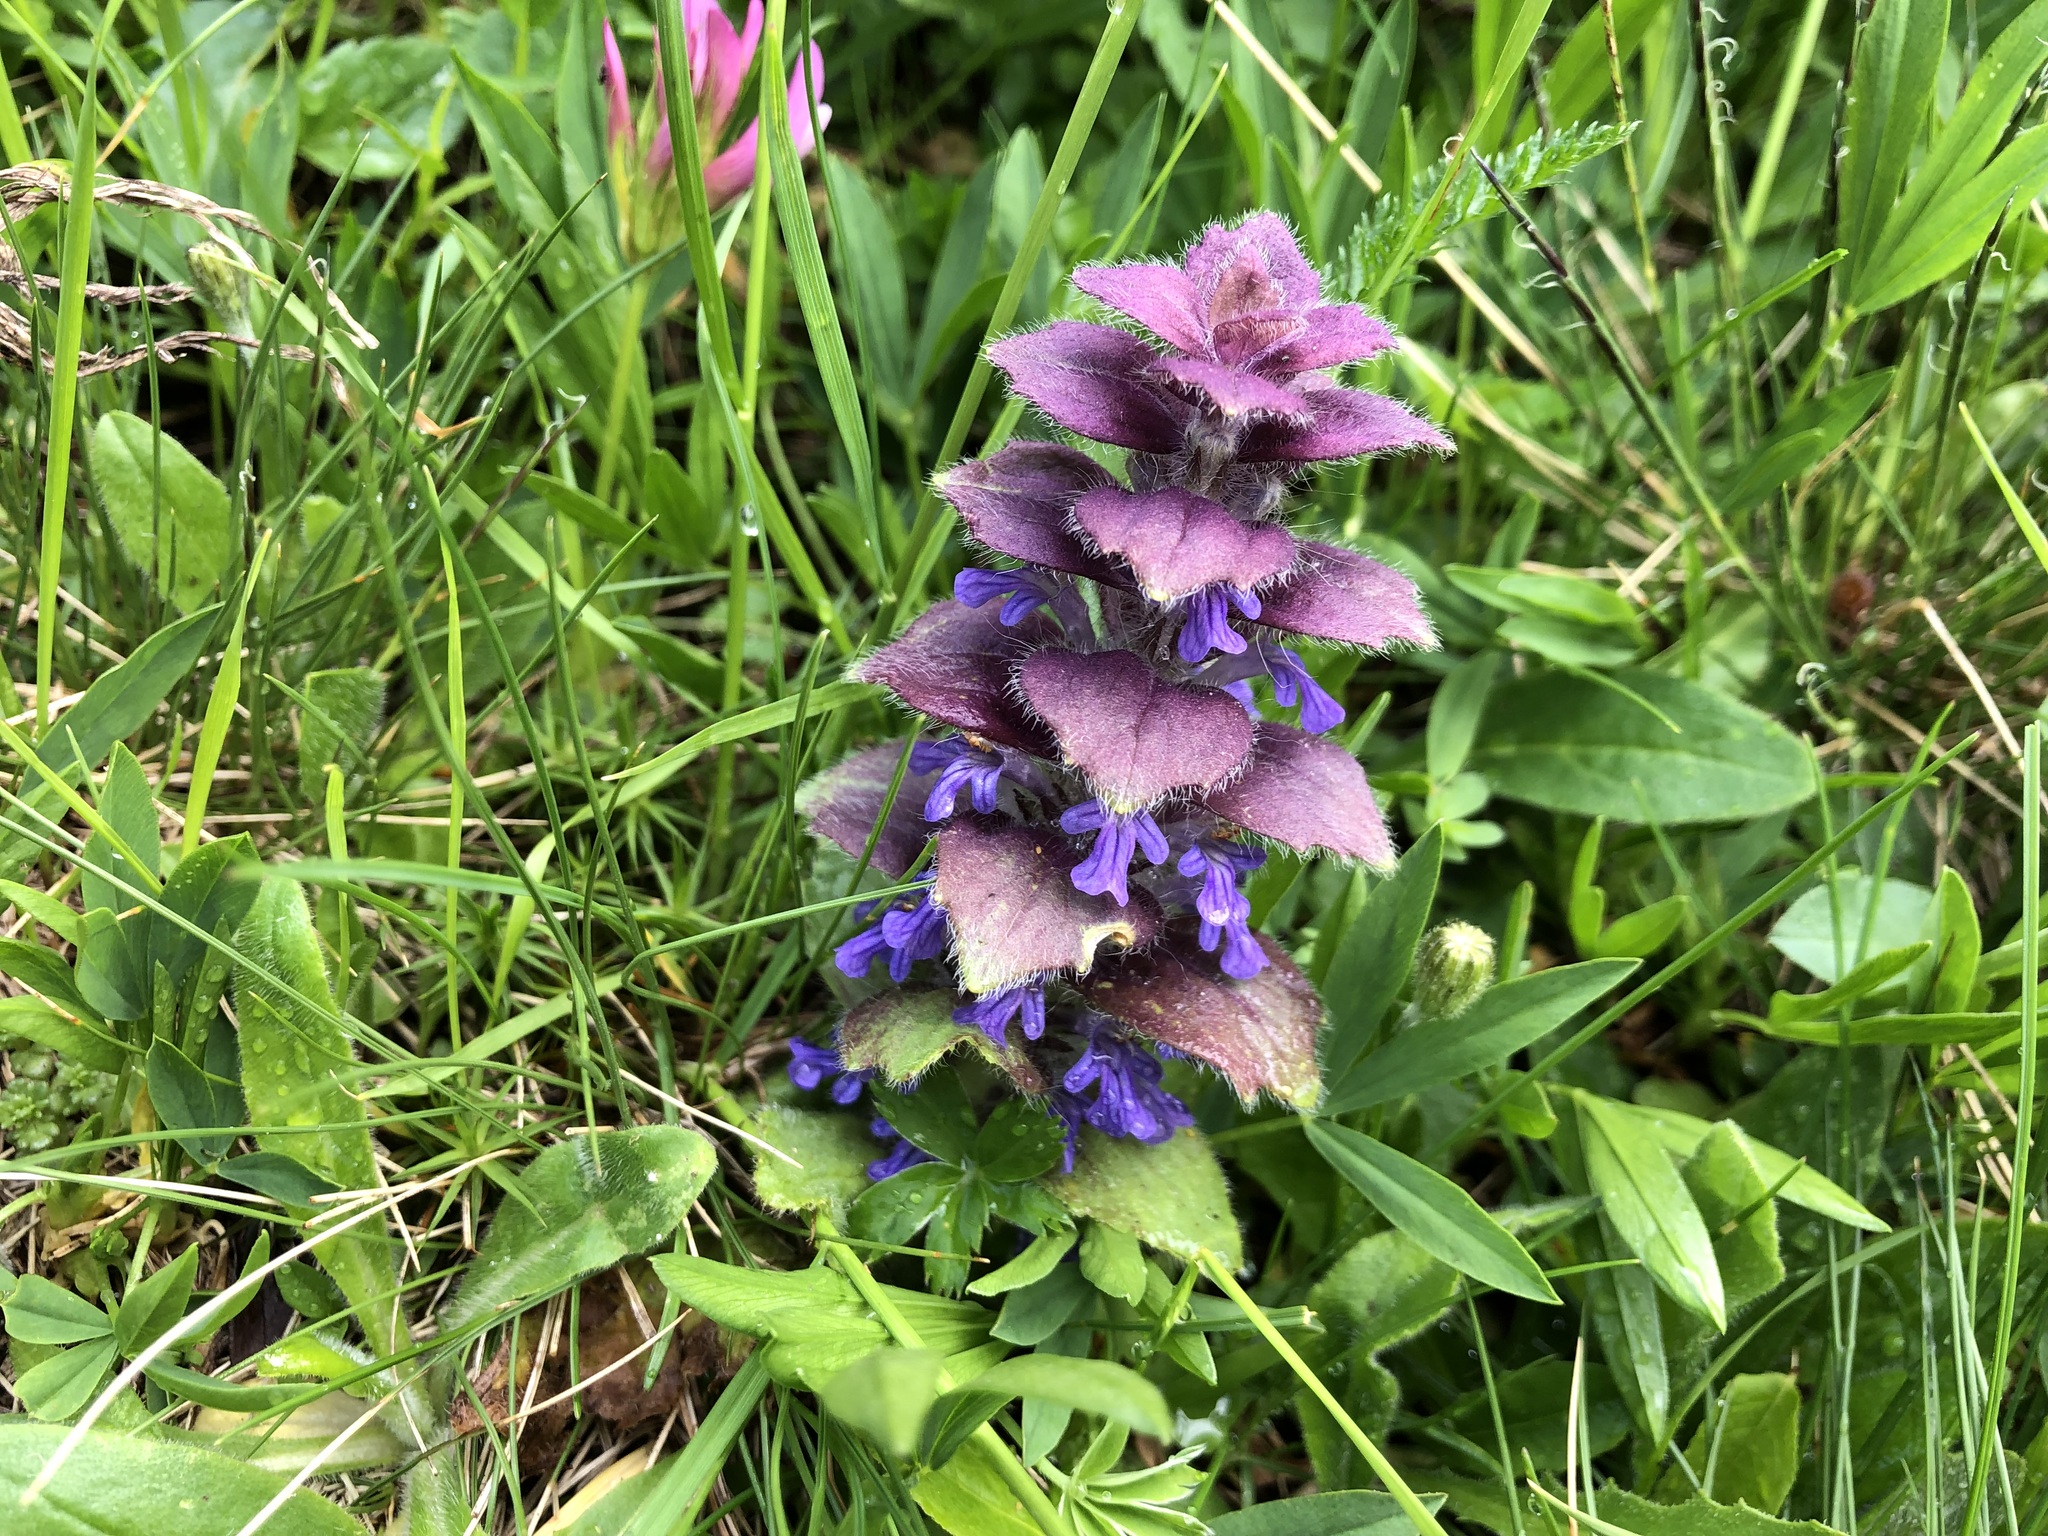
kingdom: Plantae
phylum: Tracheophyta
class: Magnoliopsida
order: Lamiales
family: Lamiaceae
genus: Ajuga
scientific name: Ajuga pyramidalis
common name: Pyramid bugle
